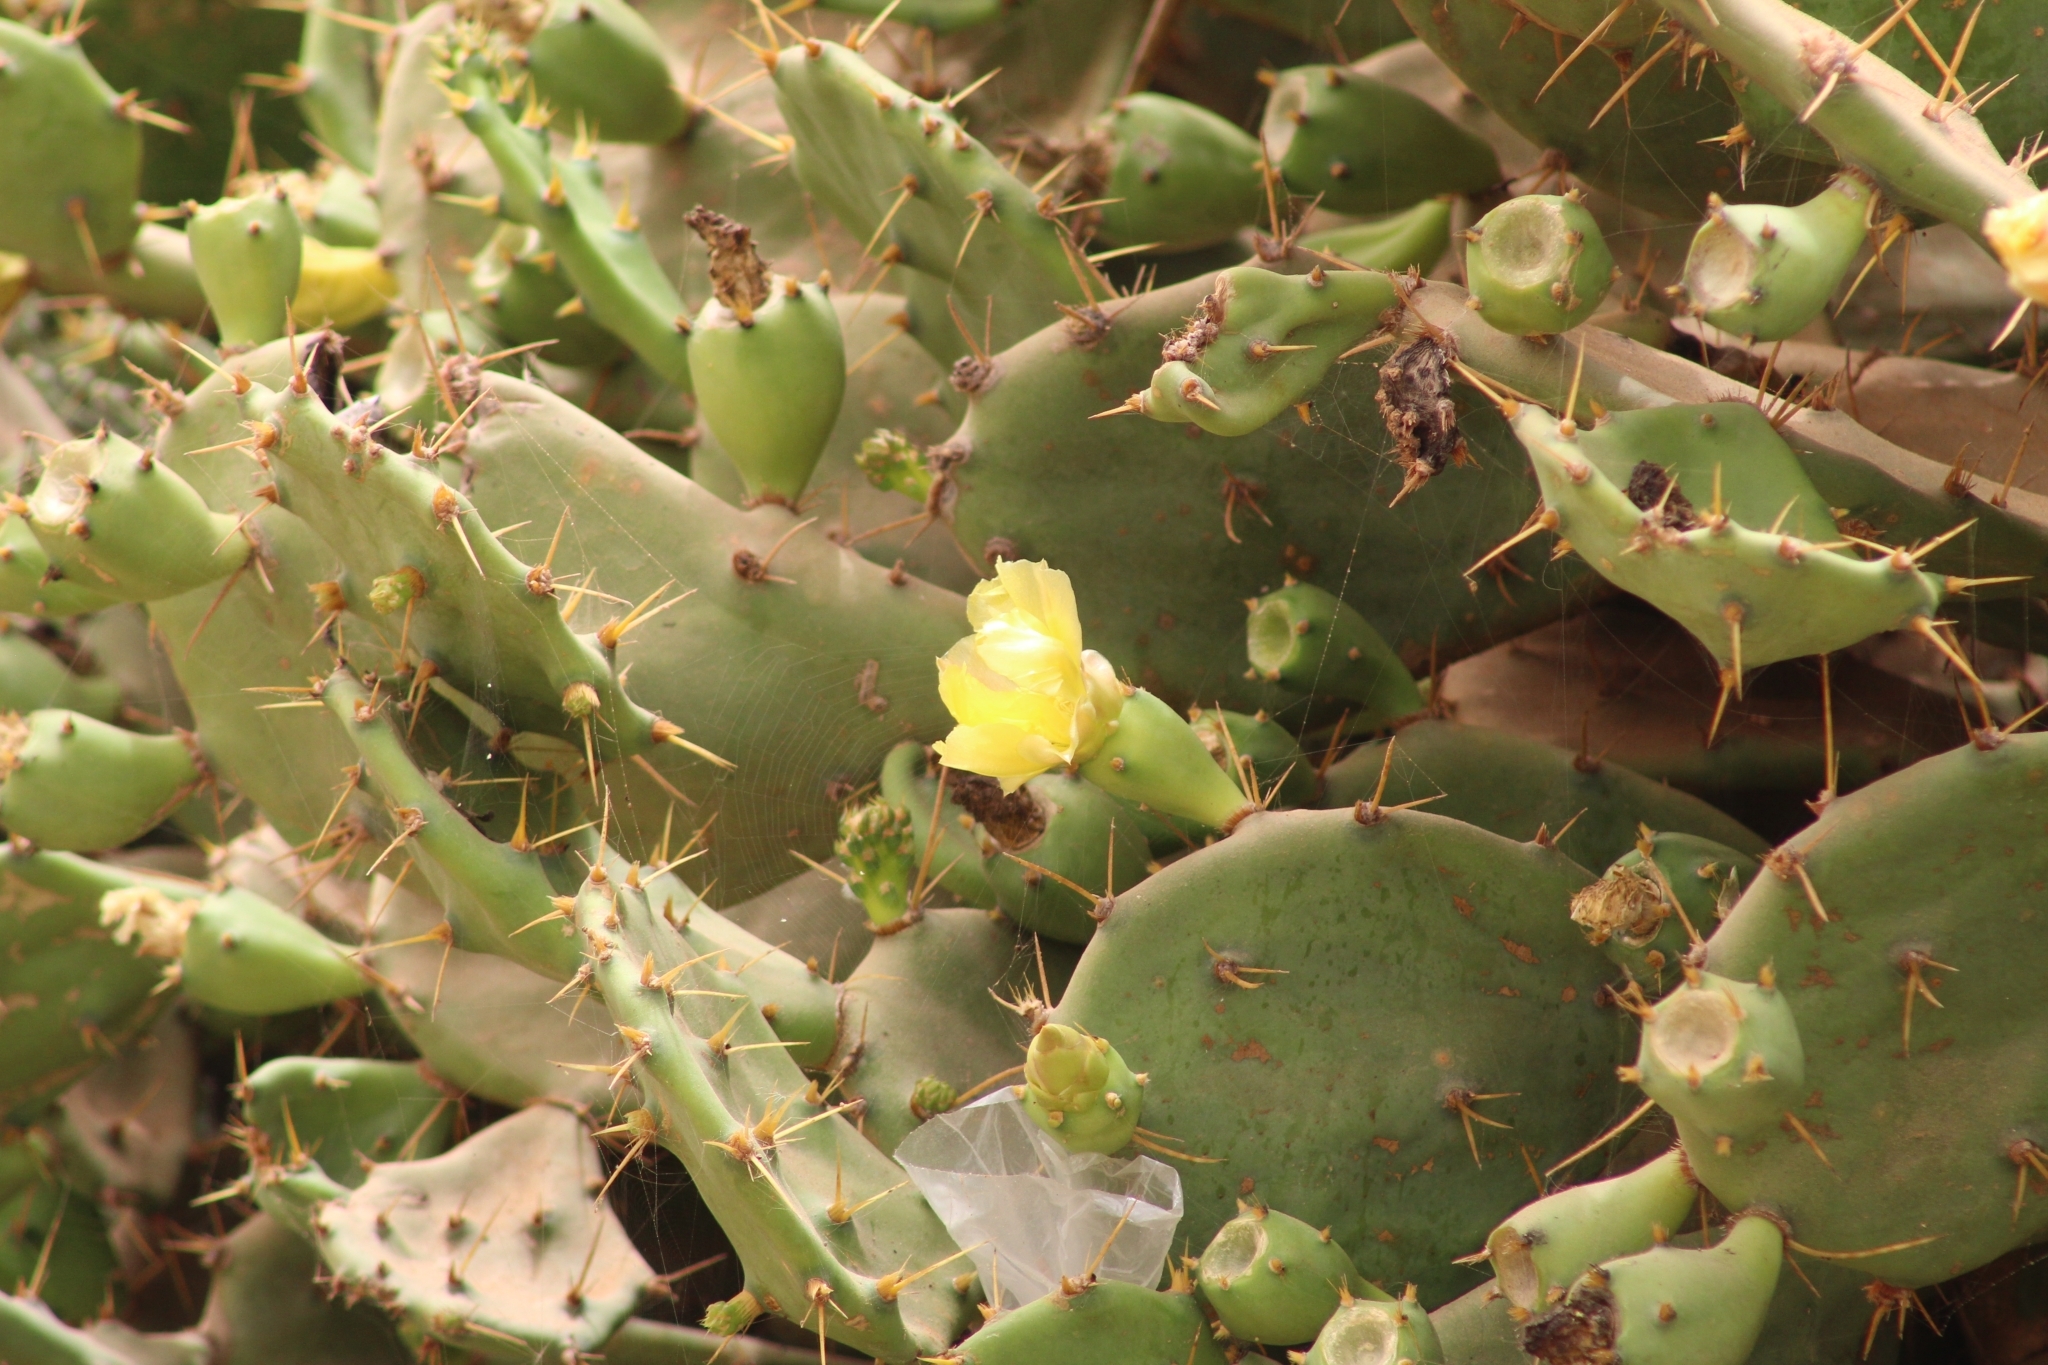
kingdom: Plantae
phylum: Tracheophyta
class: Magnoliopsida
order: Caryophyllales
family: Cactaceae
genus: Opuntia
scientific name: Opuntia stricta
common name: Erect pricklypear
